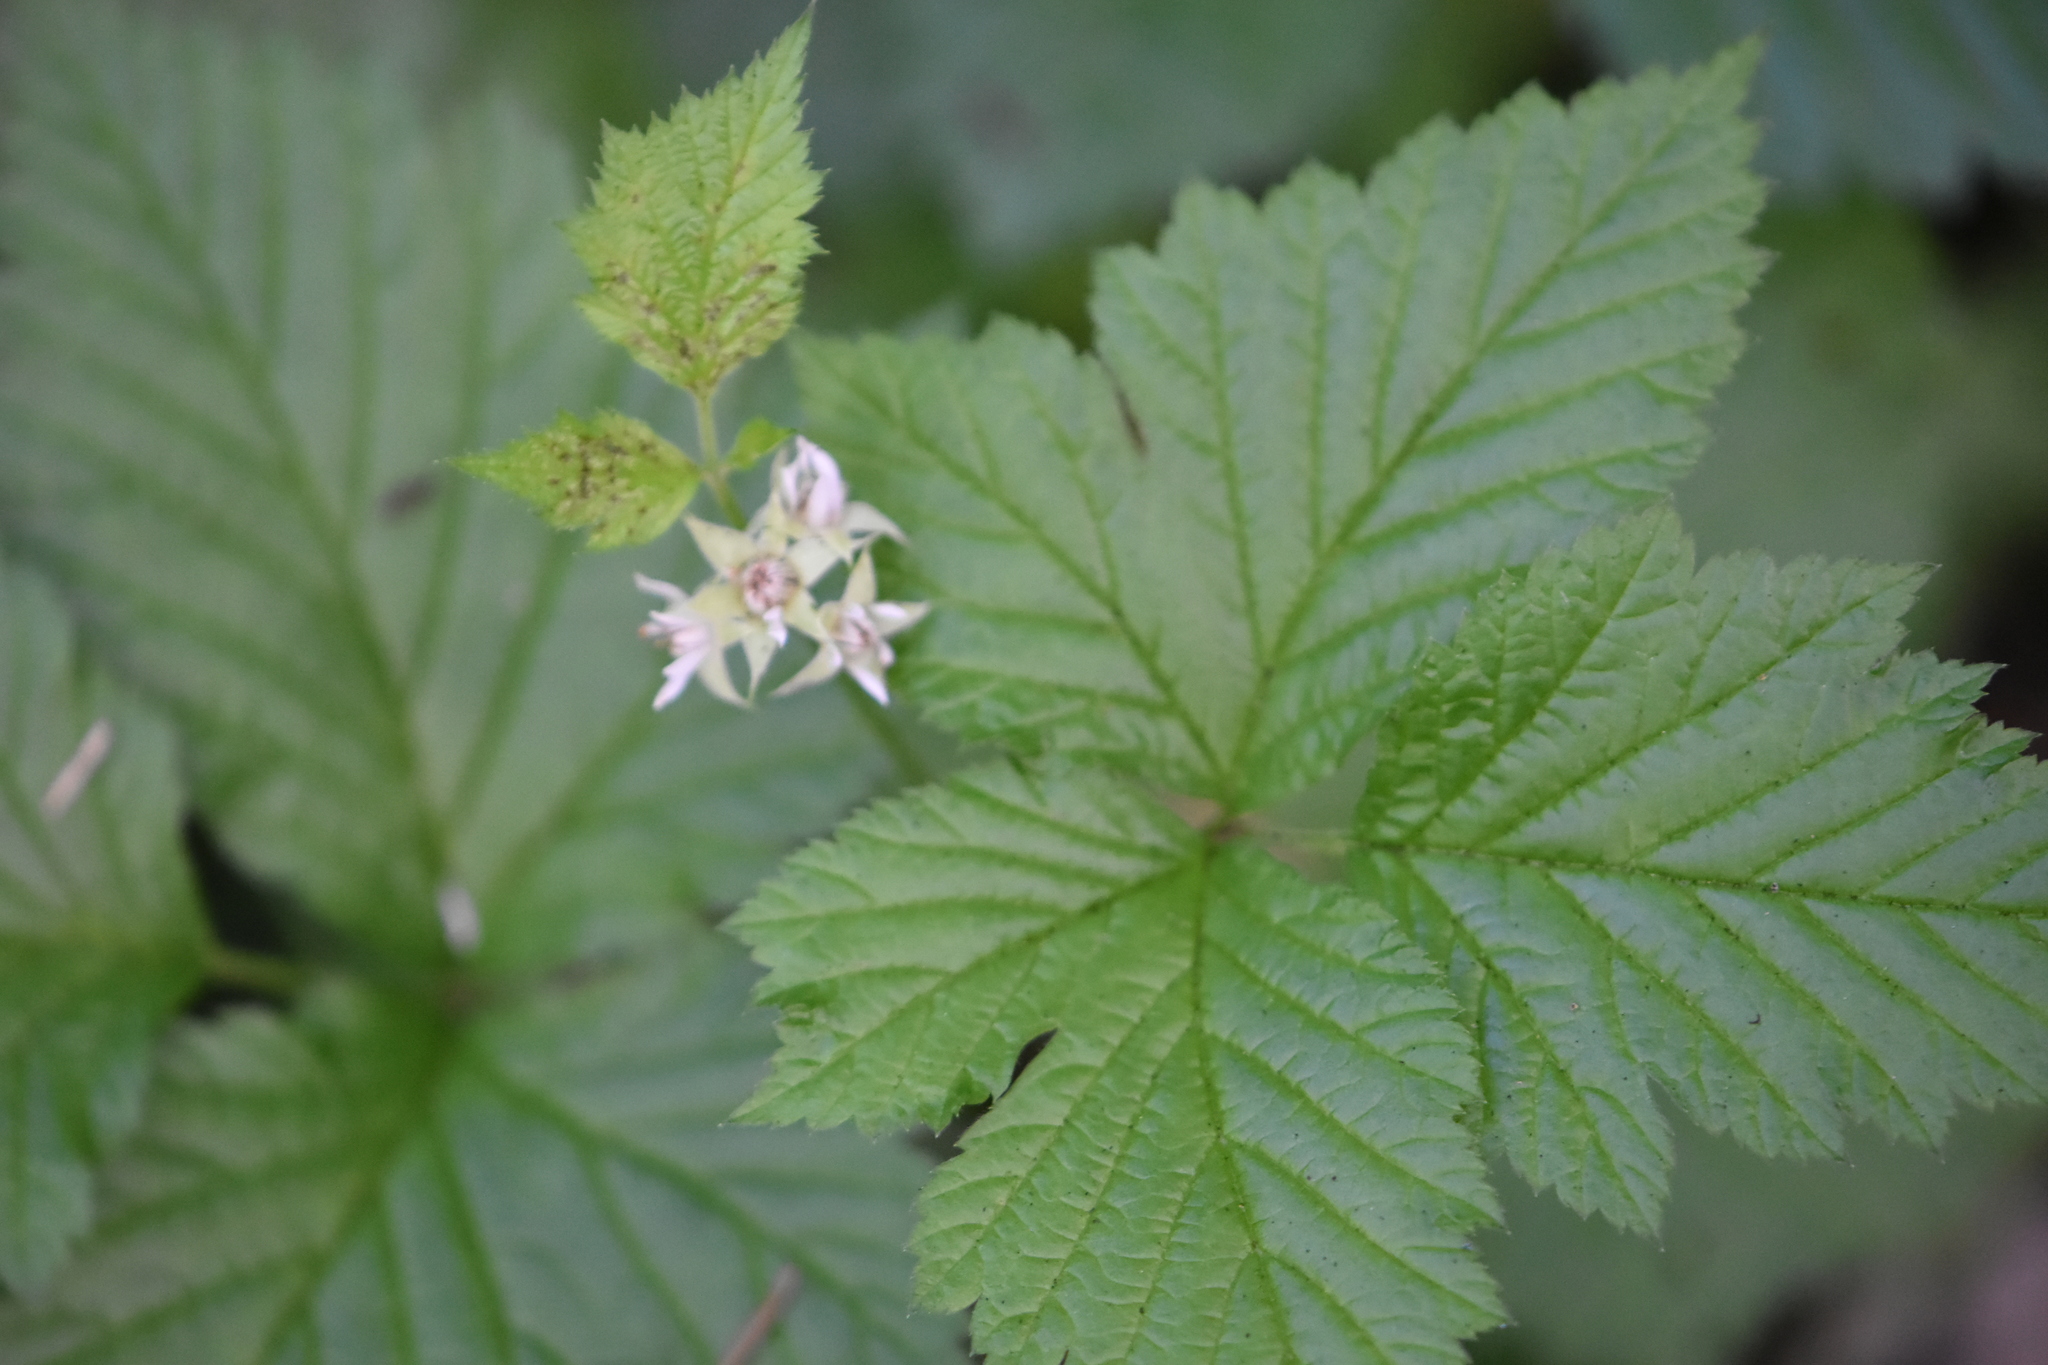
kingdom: Plantae
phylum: Tracheophyta
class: Magnoliopsida
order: Rosales
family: Rosaceae
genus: Rubus
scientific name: Rubus saxatilis
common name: Stone bramble
